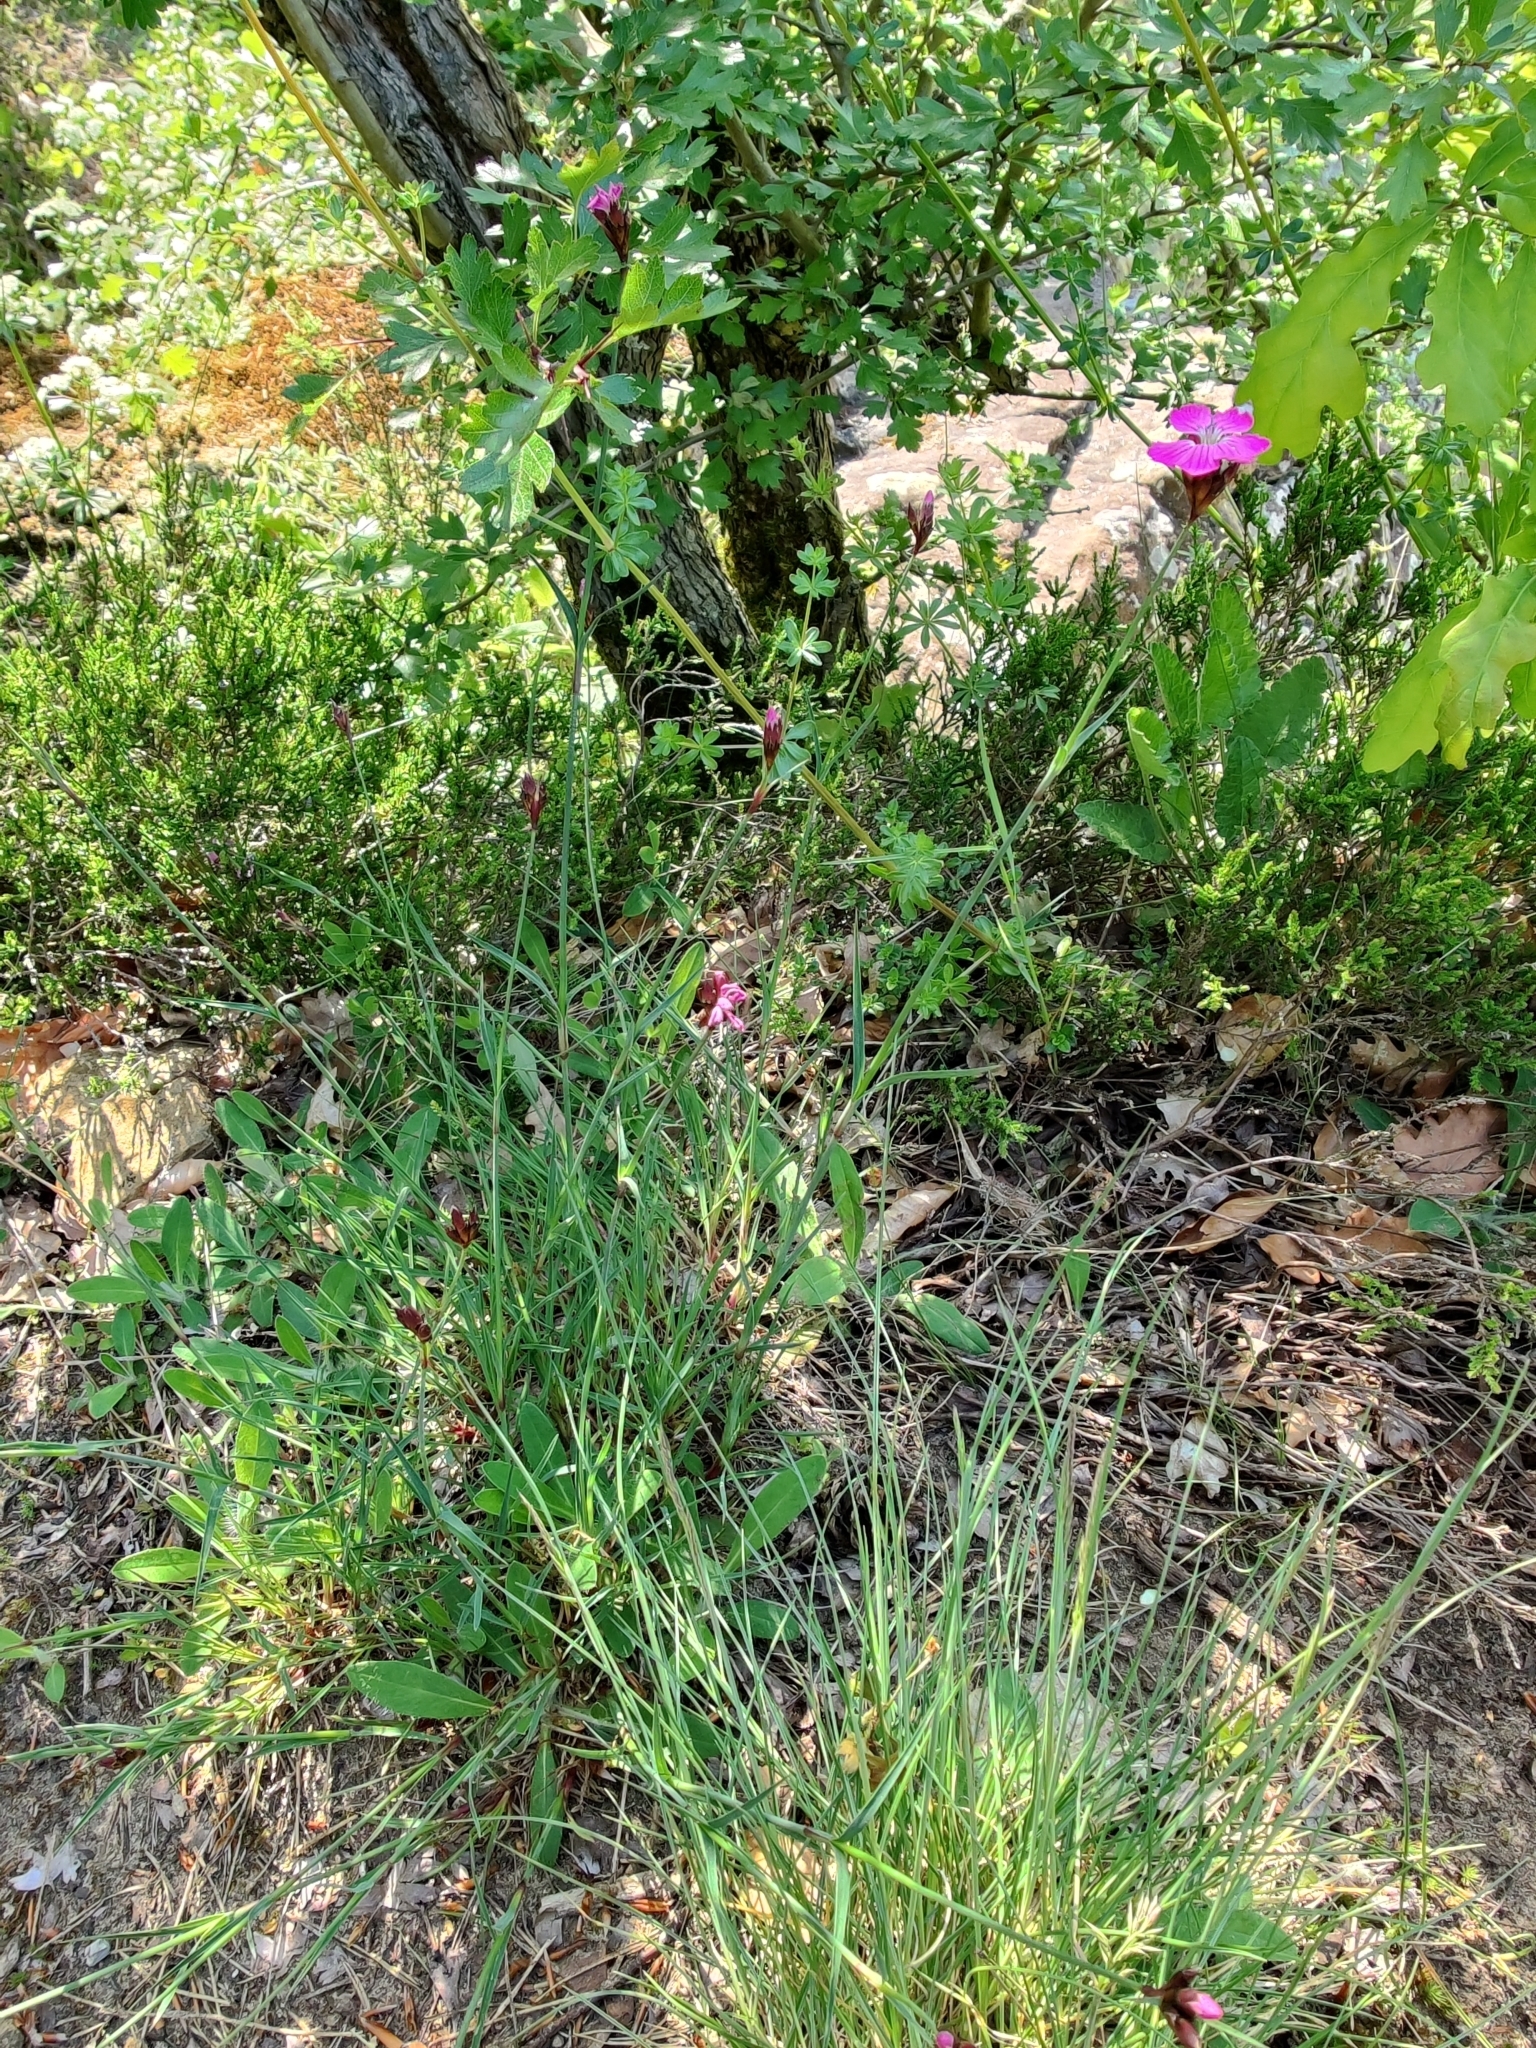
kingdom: Plantae
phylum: Tracheophyta
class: Magnoliopsida
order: Caryophyllales
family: Caryophyllaceae
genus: Dianthus
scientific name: Dianthus carthusianorum
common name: Carthusian pink
